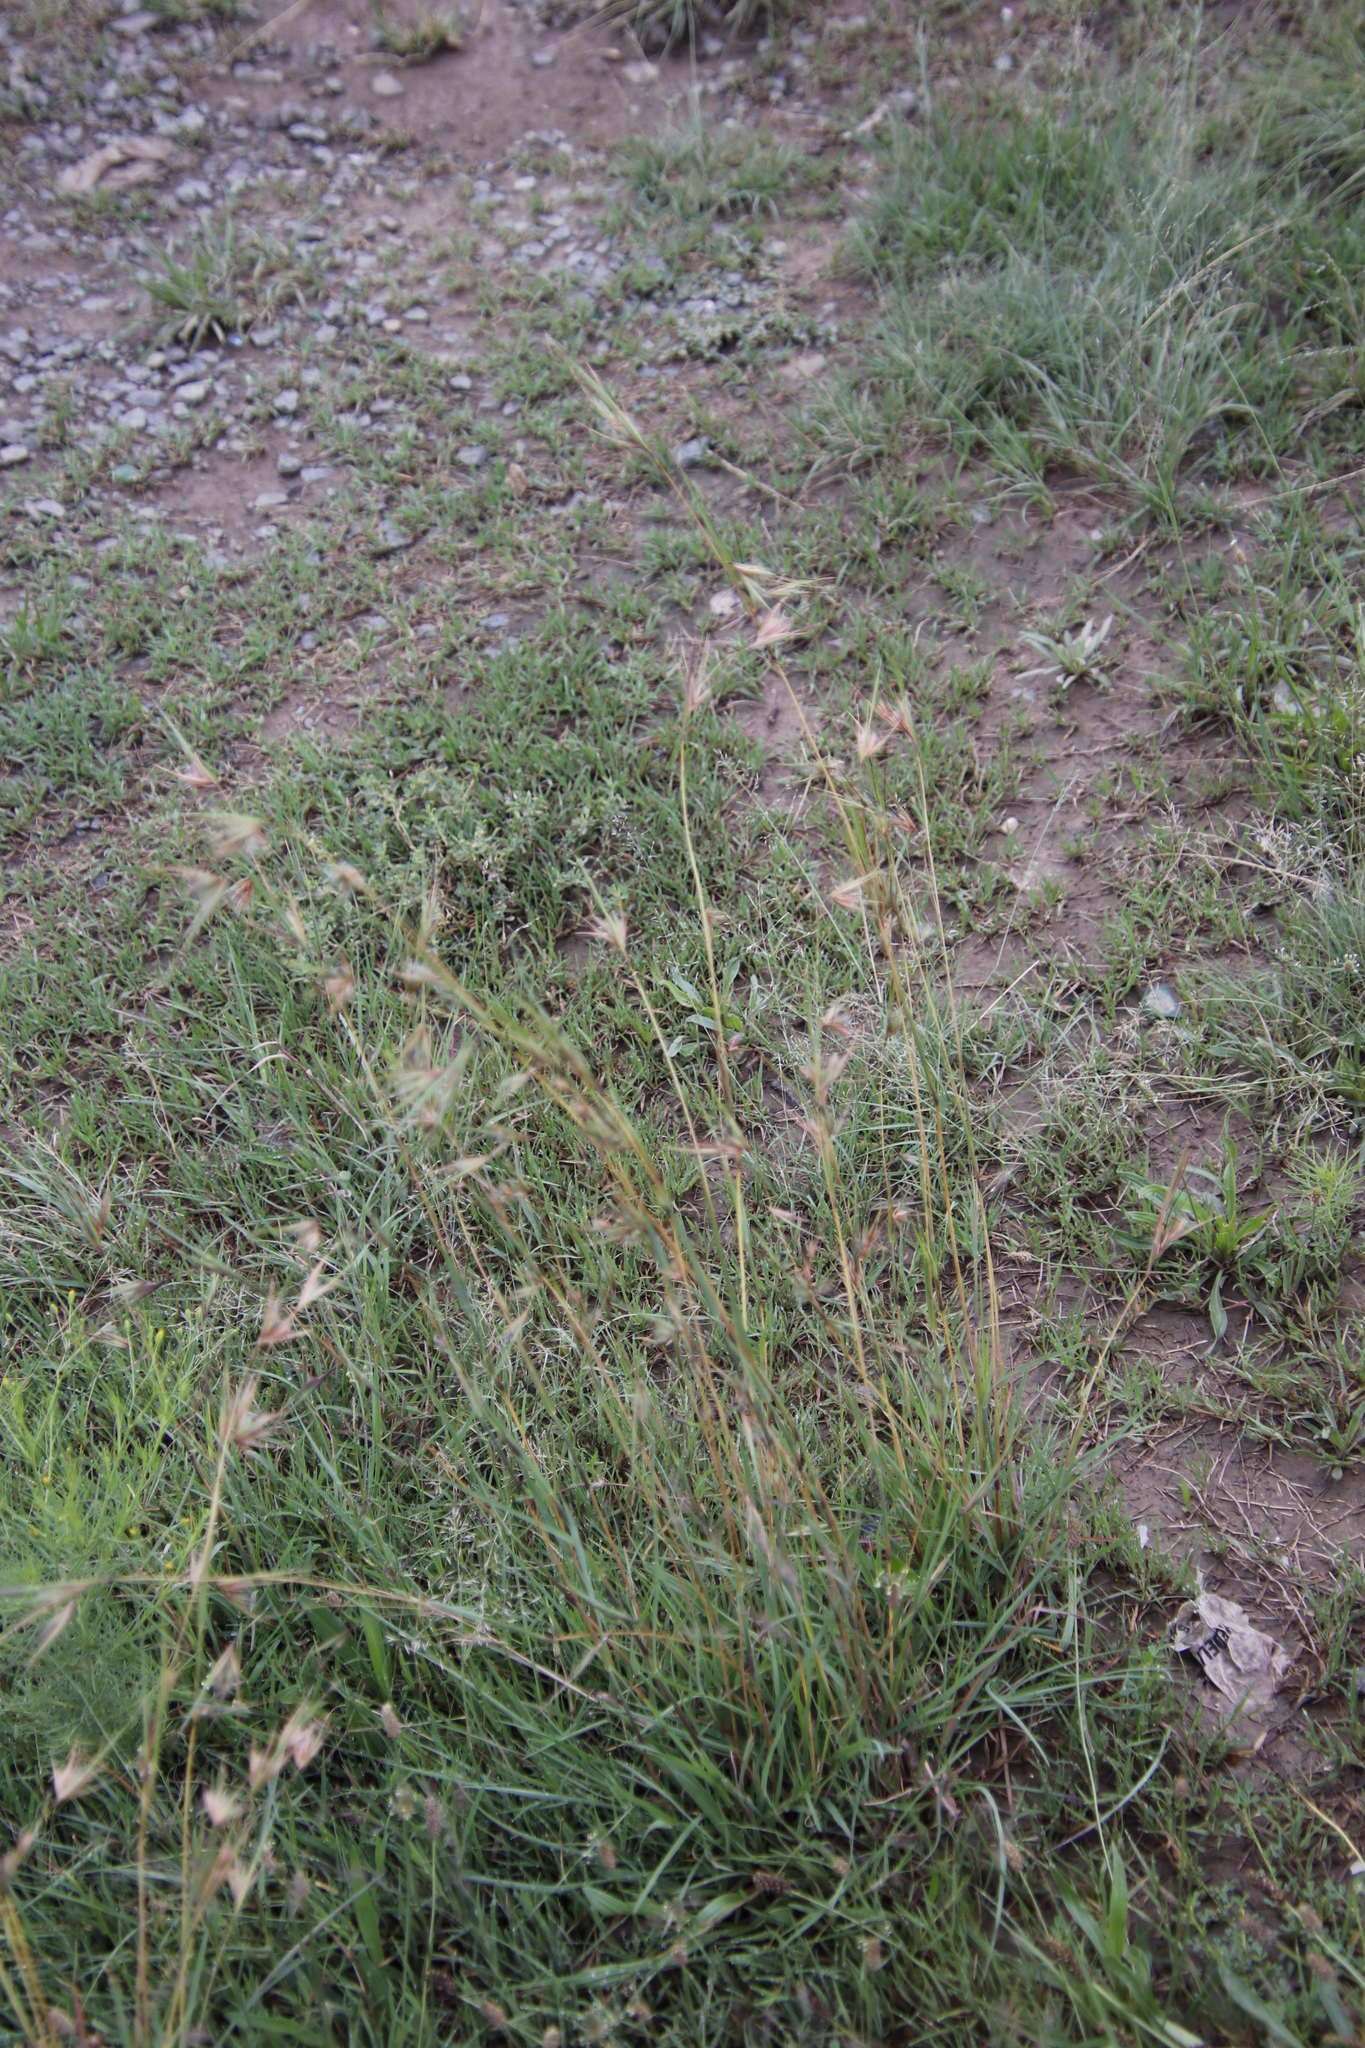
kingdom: Plantae
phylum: Tracheophyta
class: Liliopsida
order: Poales
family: Poaceae
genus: Themeda
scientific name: Themeda triandra
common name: Kangaroo grass
